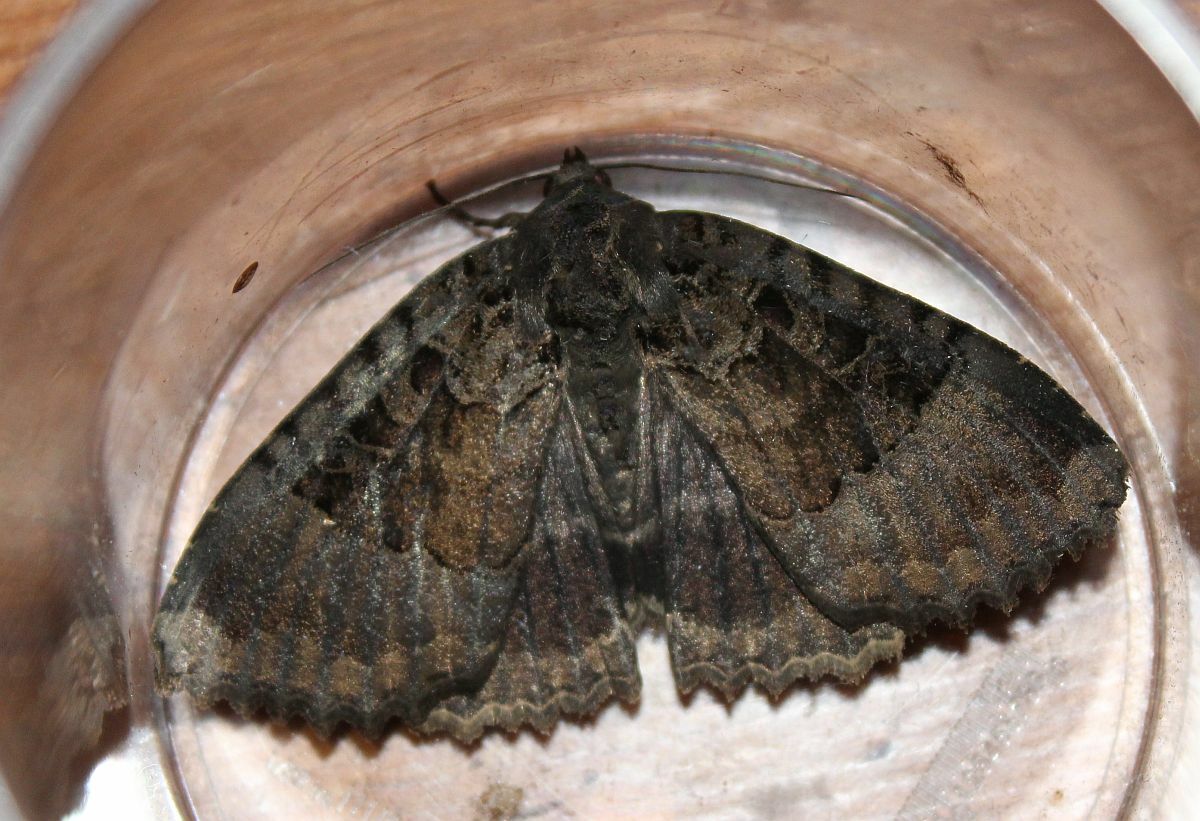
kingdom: Animalia
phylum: Arthropoda
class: Insecta
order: Lepidoptera
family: Noctuidae
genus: Mormo
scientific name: Mormo maura
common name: Old lady
